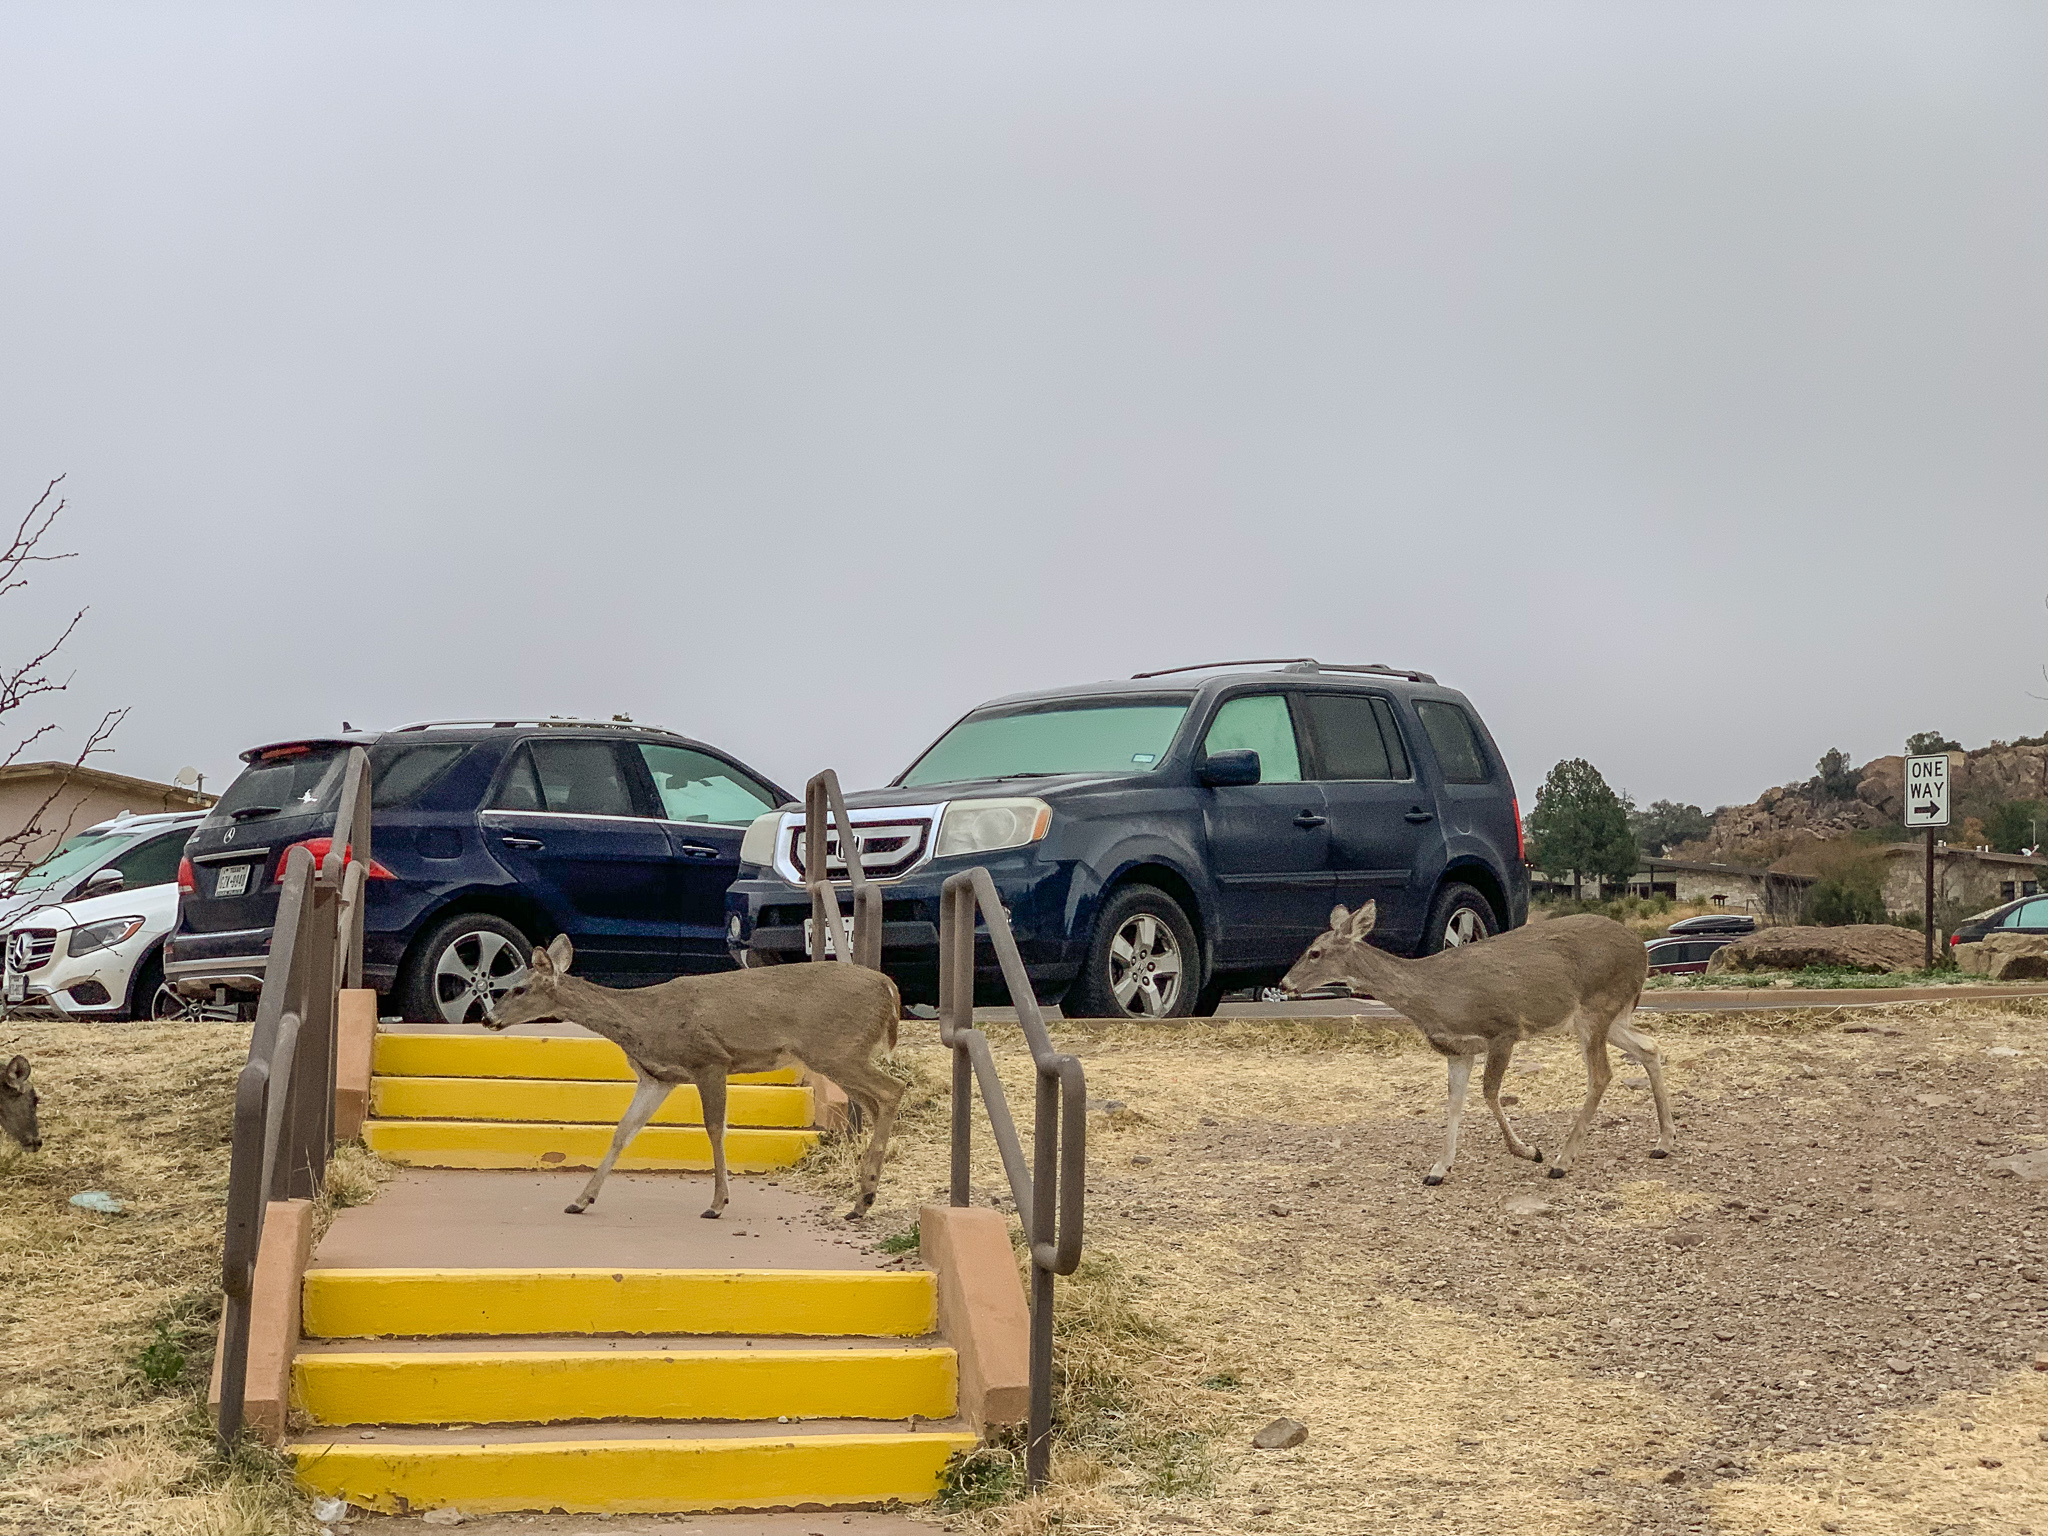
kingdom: Animalia
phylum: Chordata
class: Mammalia
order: Artiodactyla
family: Cervidae
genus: Odocoileus
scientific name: Odocoileus virginianus
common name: White-tailed deer
